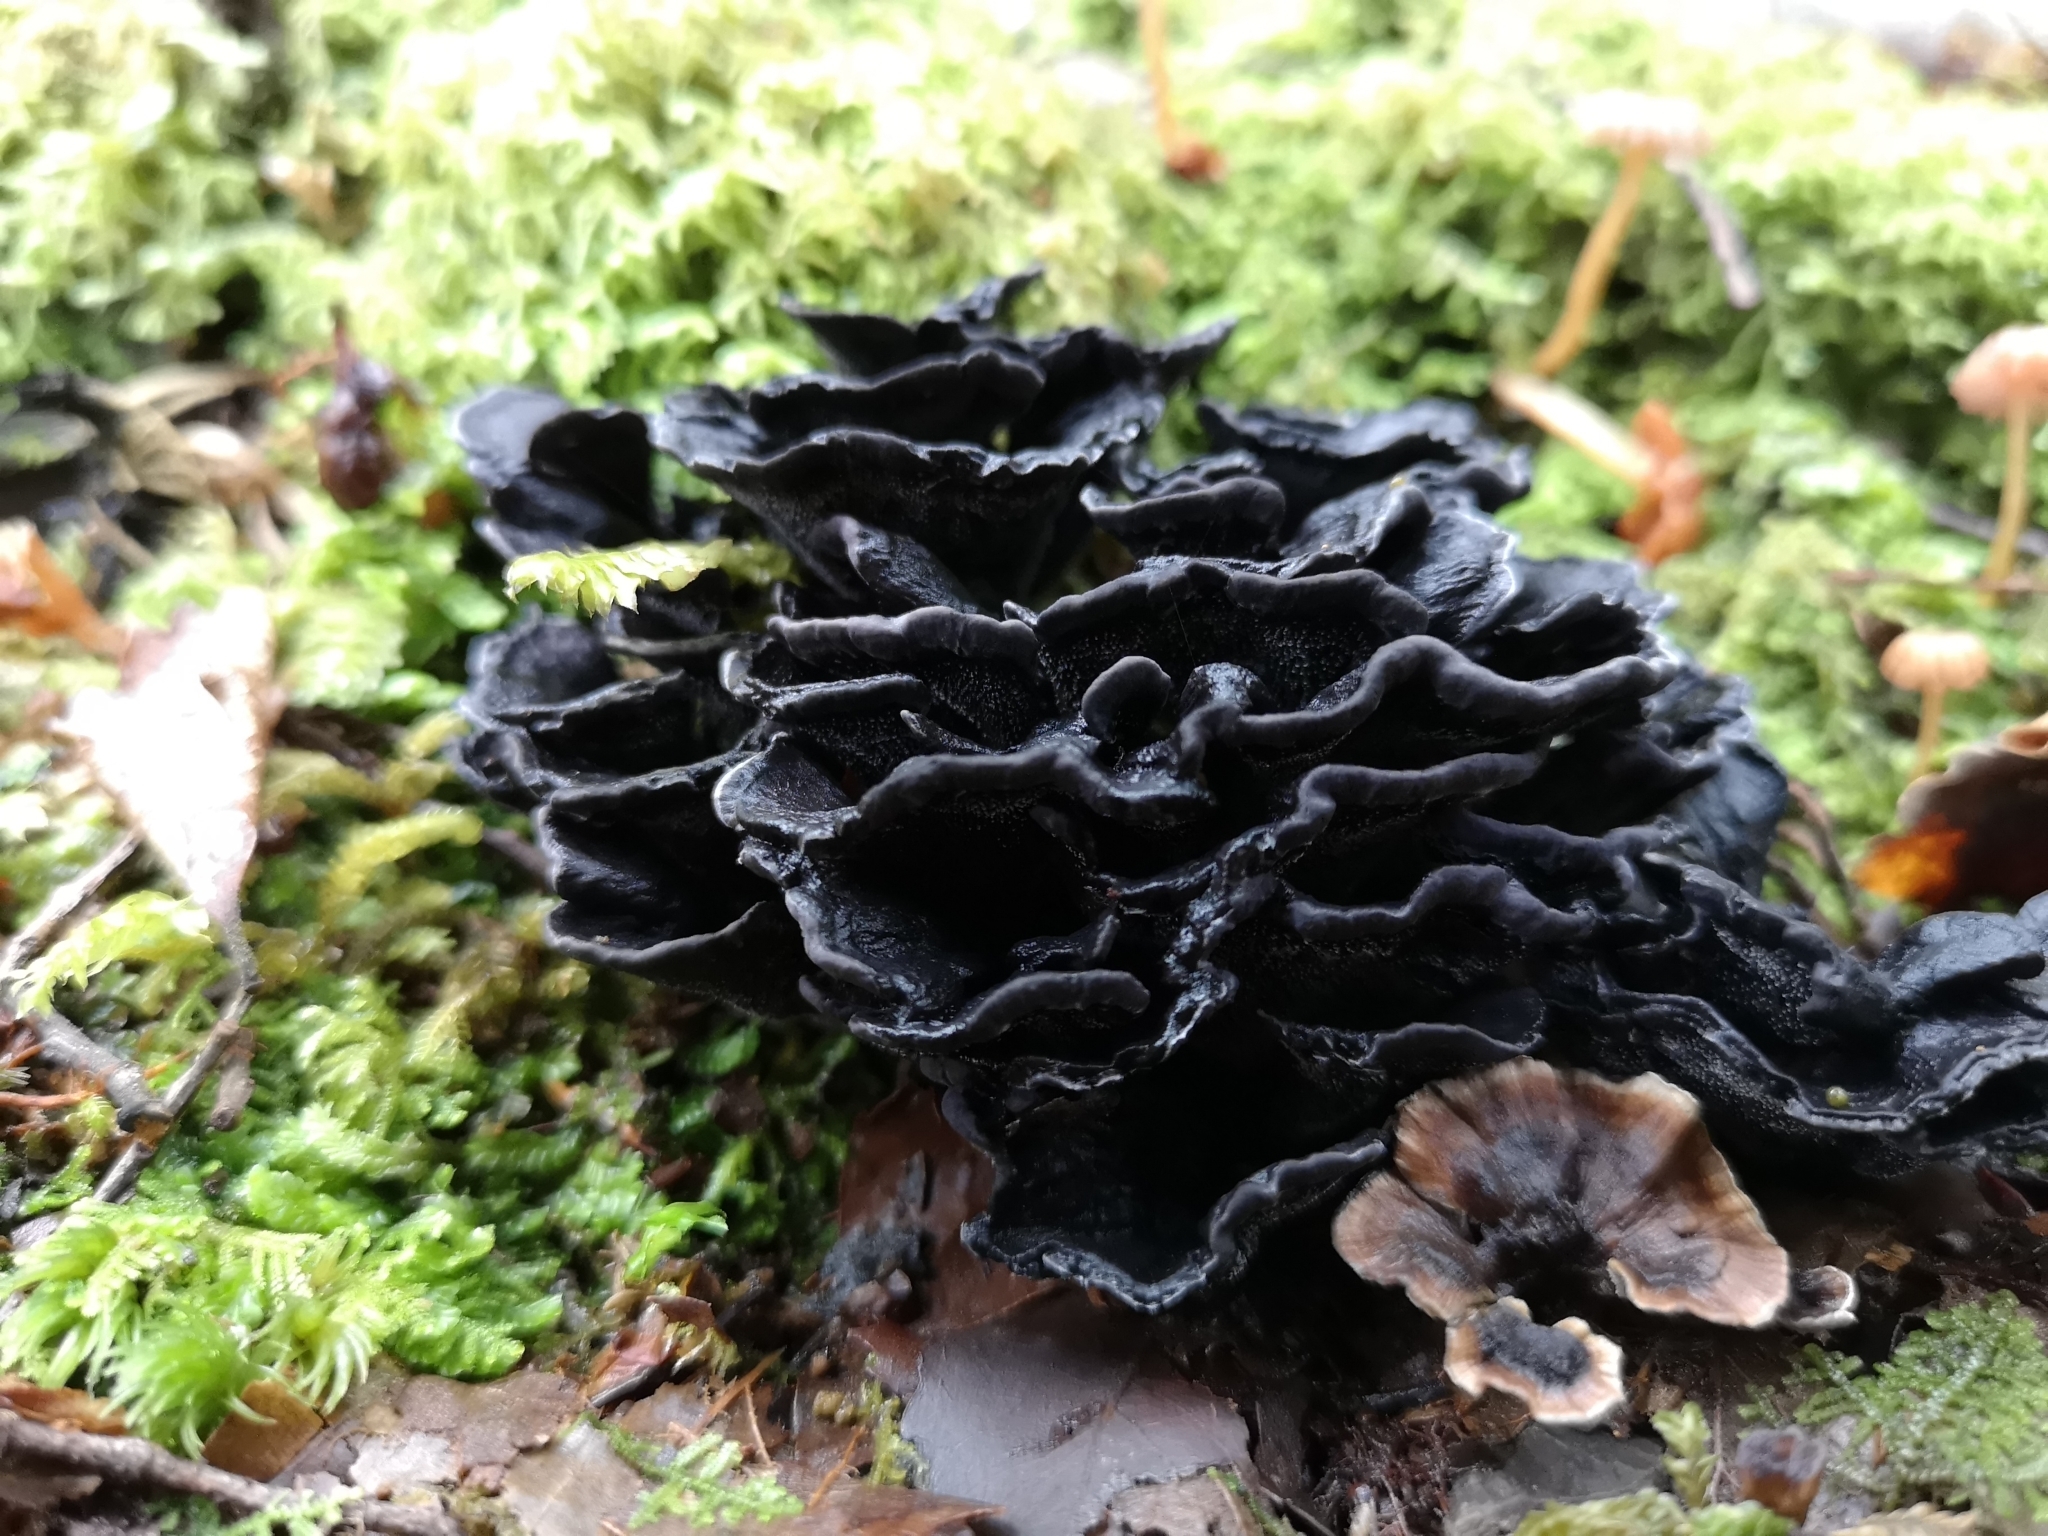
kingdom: Fungi
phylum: Basidiomycota
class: Agaricomycetes
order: Thelephorales
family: Thelephoraceae
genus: Phellodon
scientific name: Phellodon sinclairii
